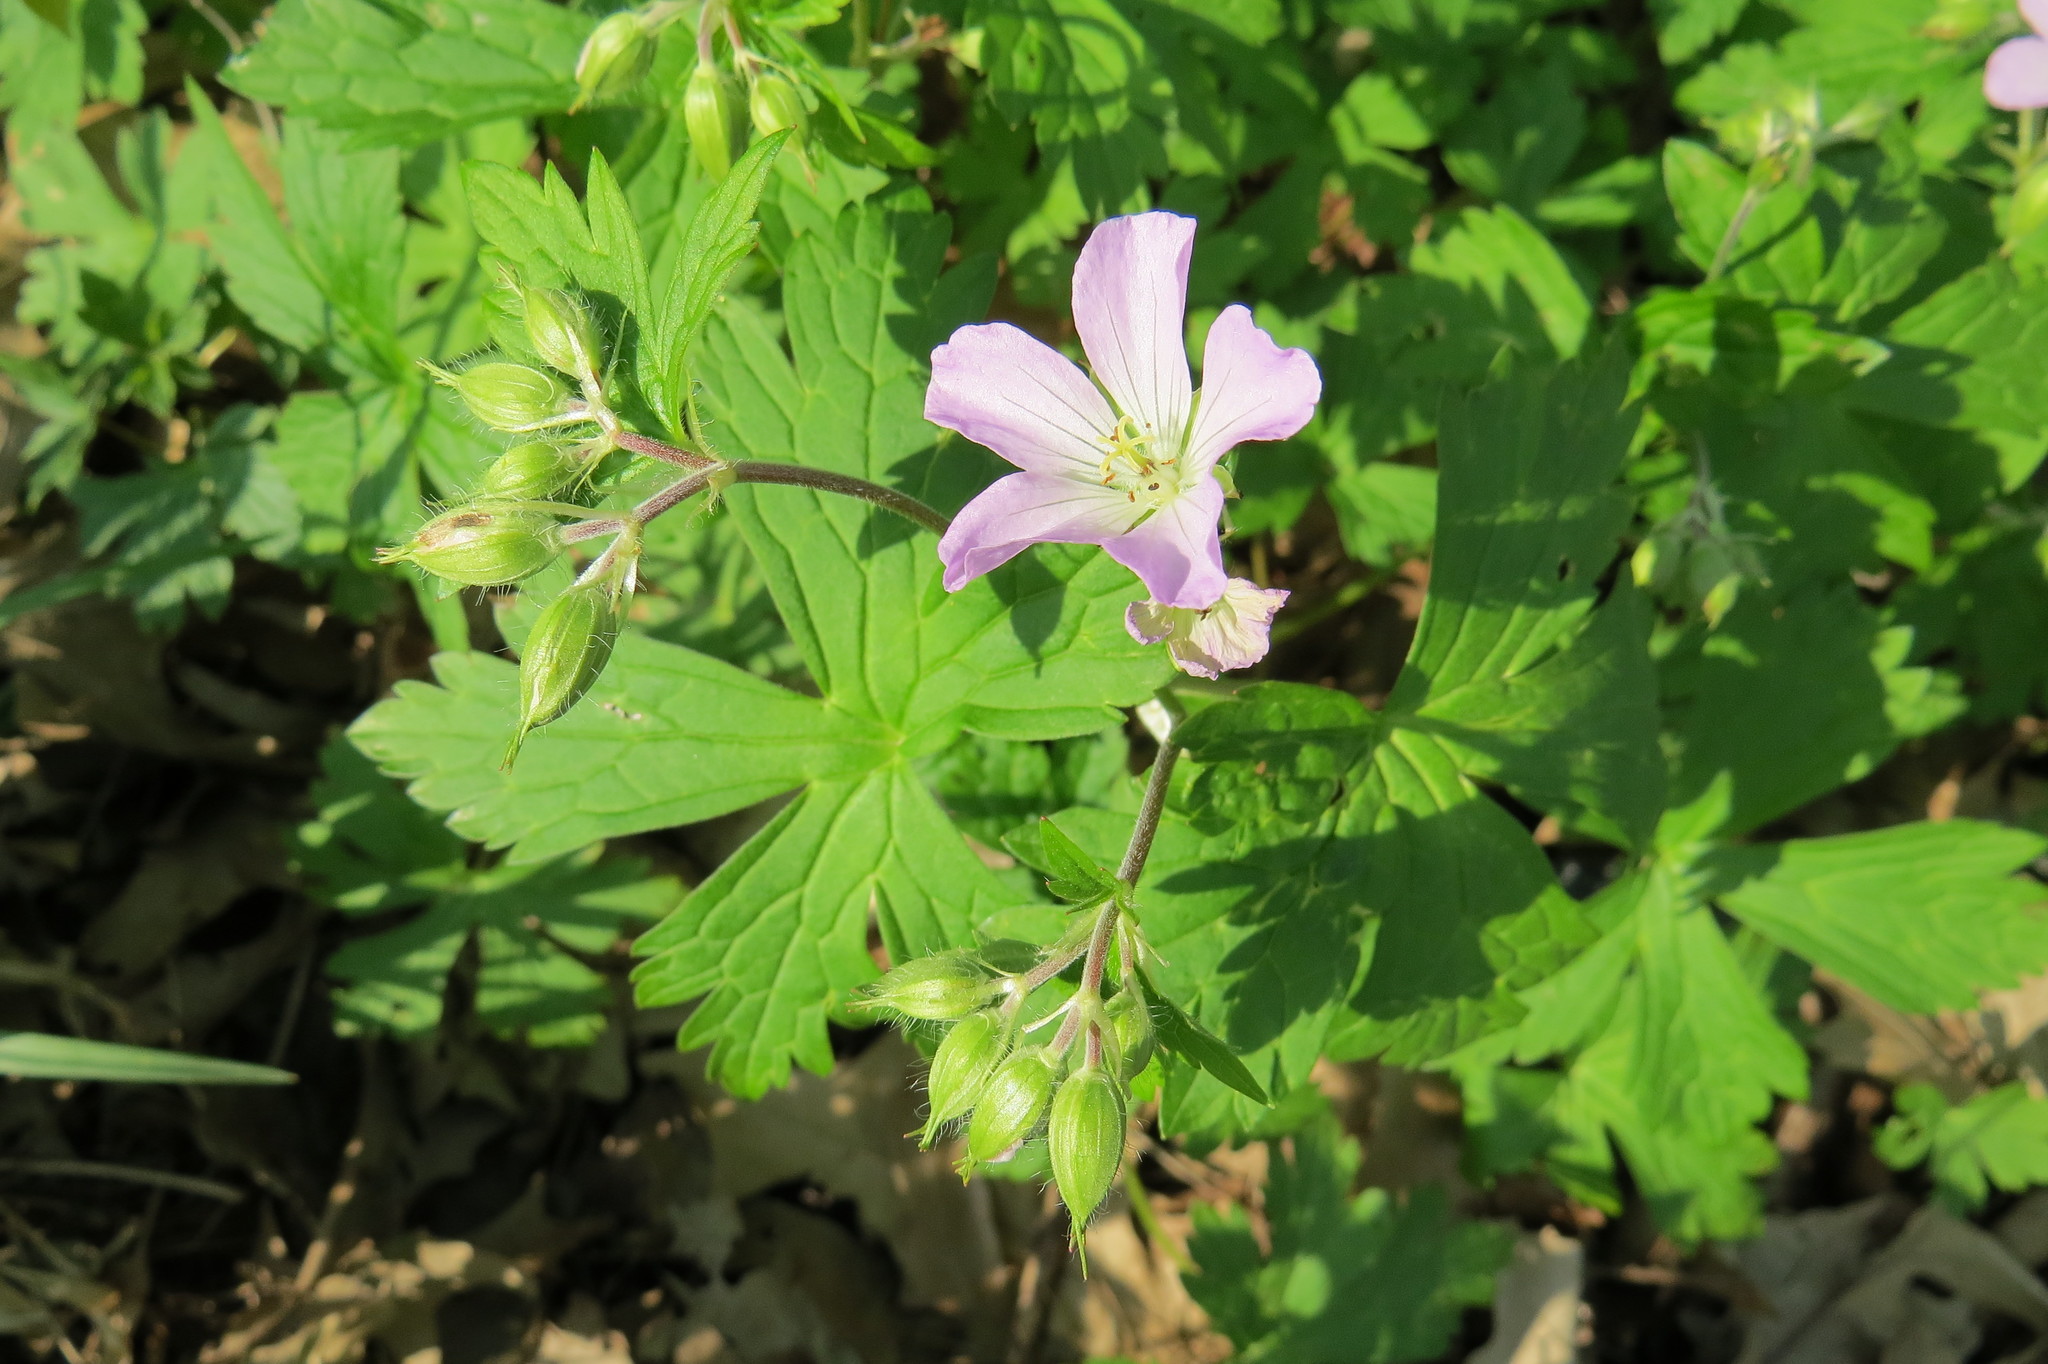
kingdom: Plantae
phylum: Tracheophyta
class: Magnoliopsida
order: Geraniales
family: Geraniaceae
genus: Geranium
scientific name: Geranium maculatum
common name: Spotted geranium
